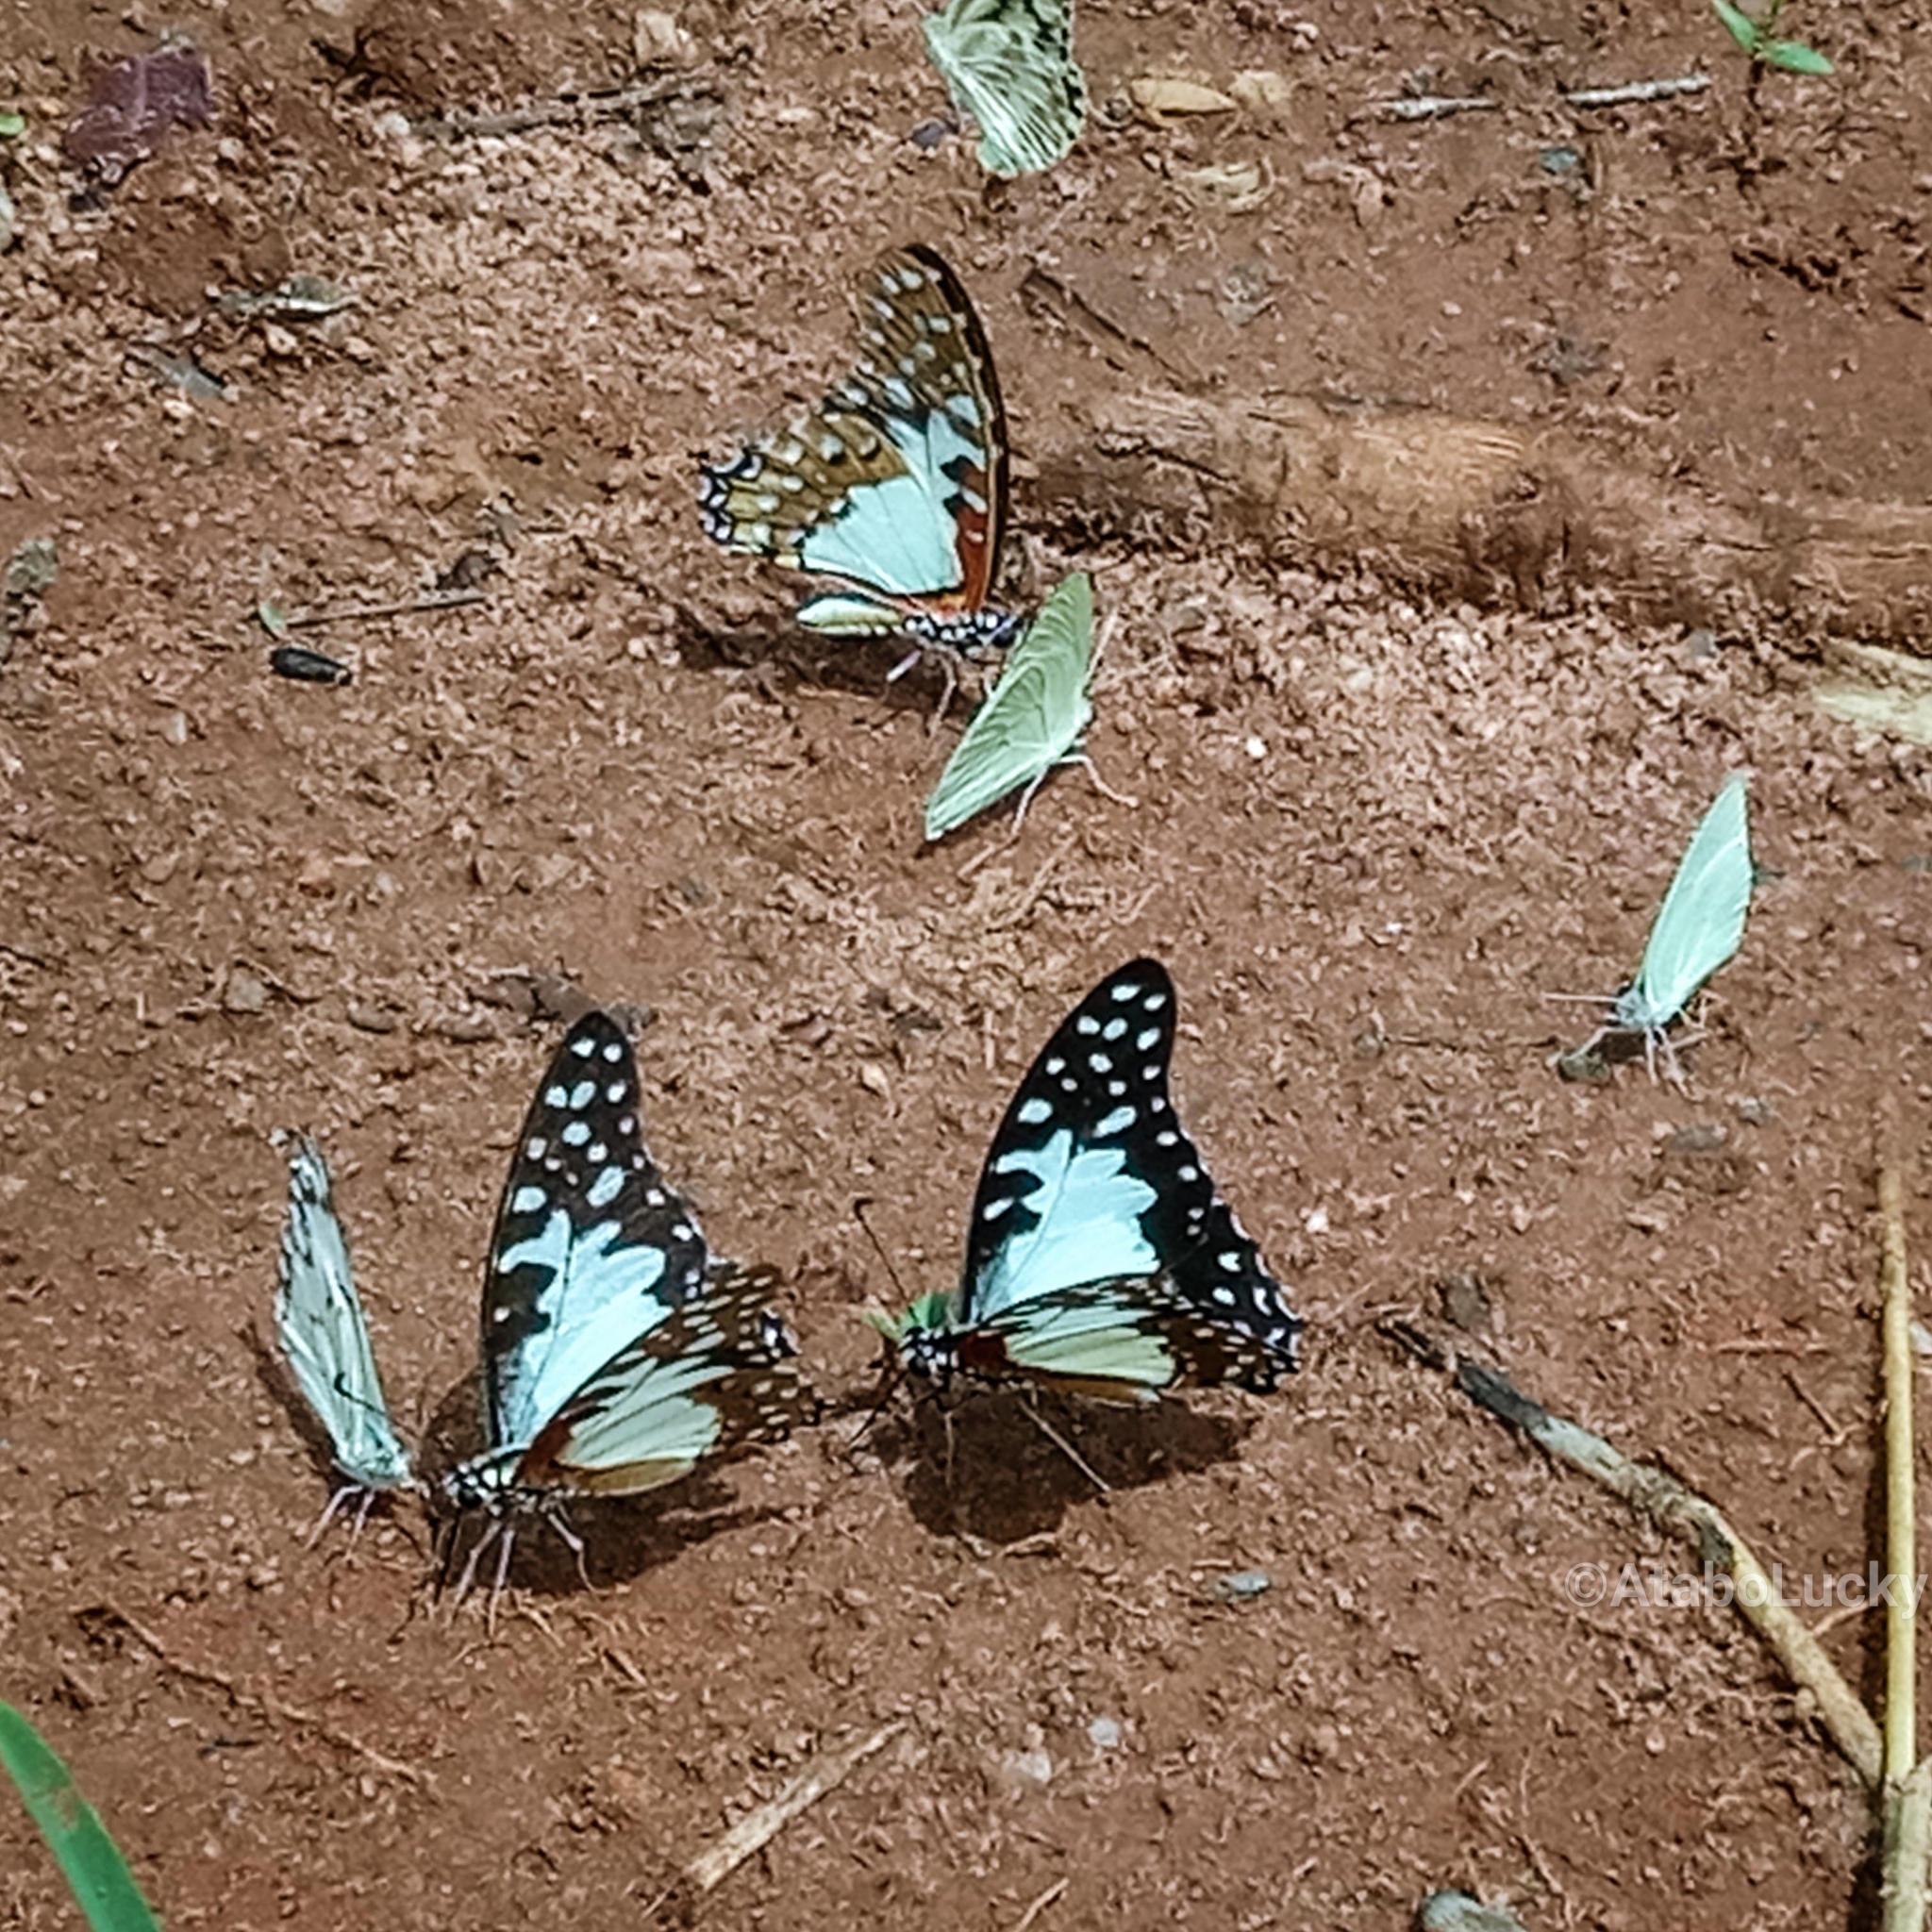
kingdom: Animalia
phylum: Arthropoda
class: Insecta
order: Lepidoptera
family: Papilionidae
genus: Graphium
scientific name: Graphium angolanus
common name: Angola white-lady swordtail
